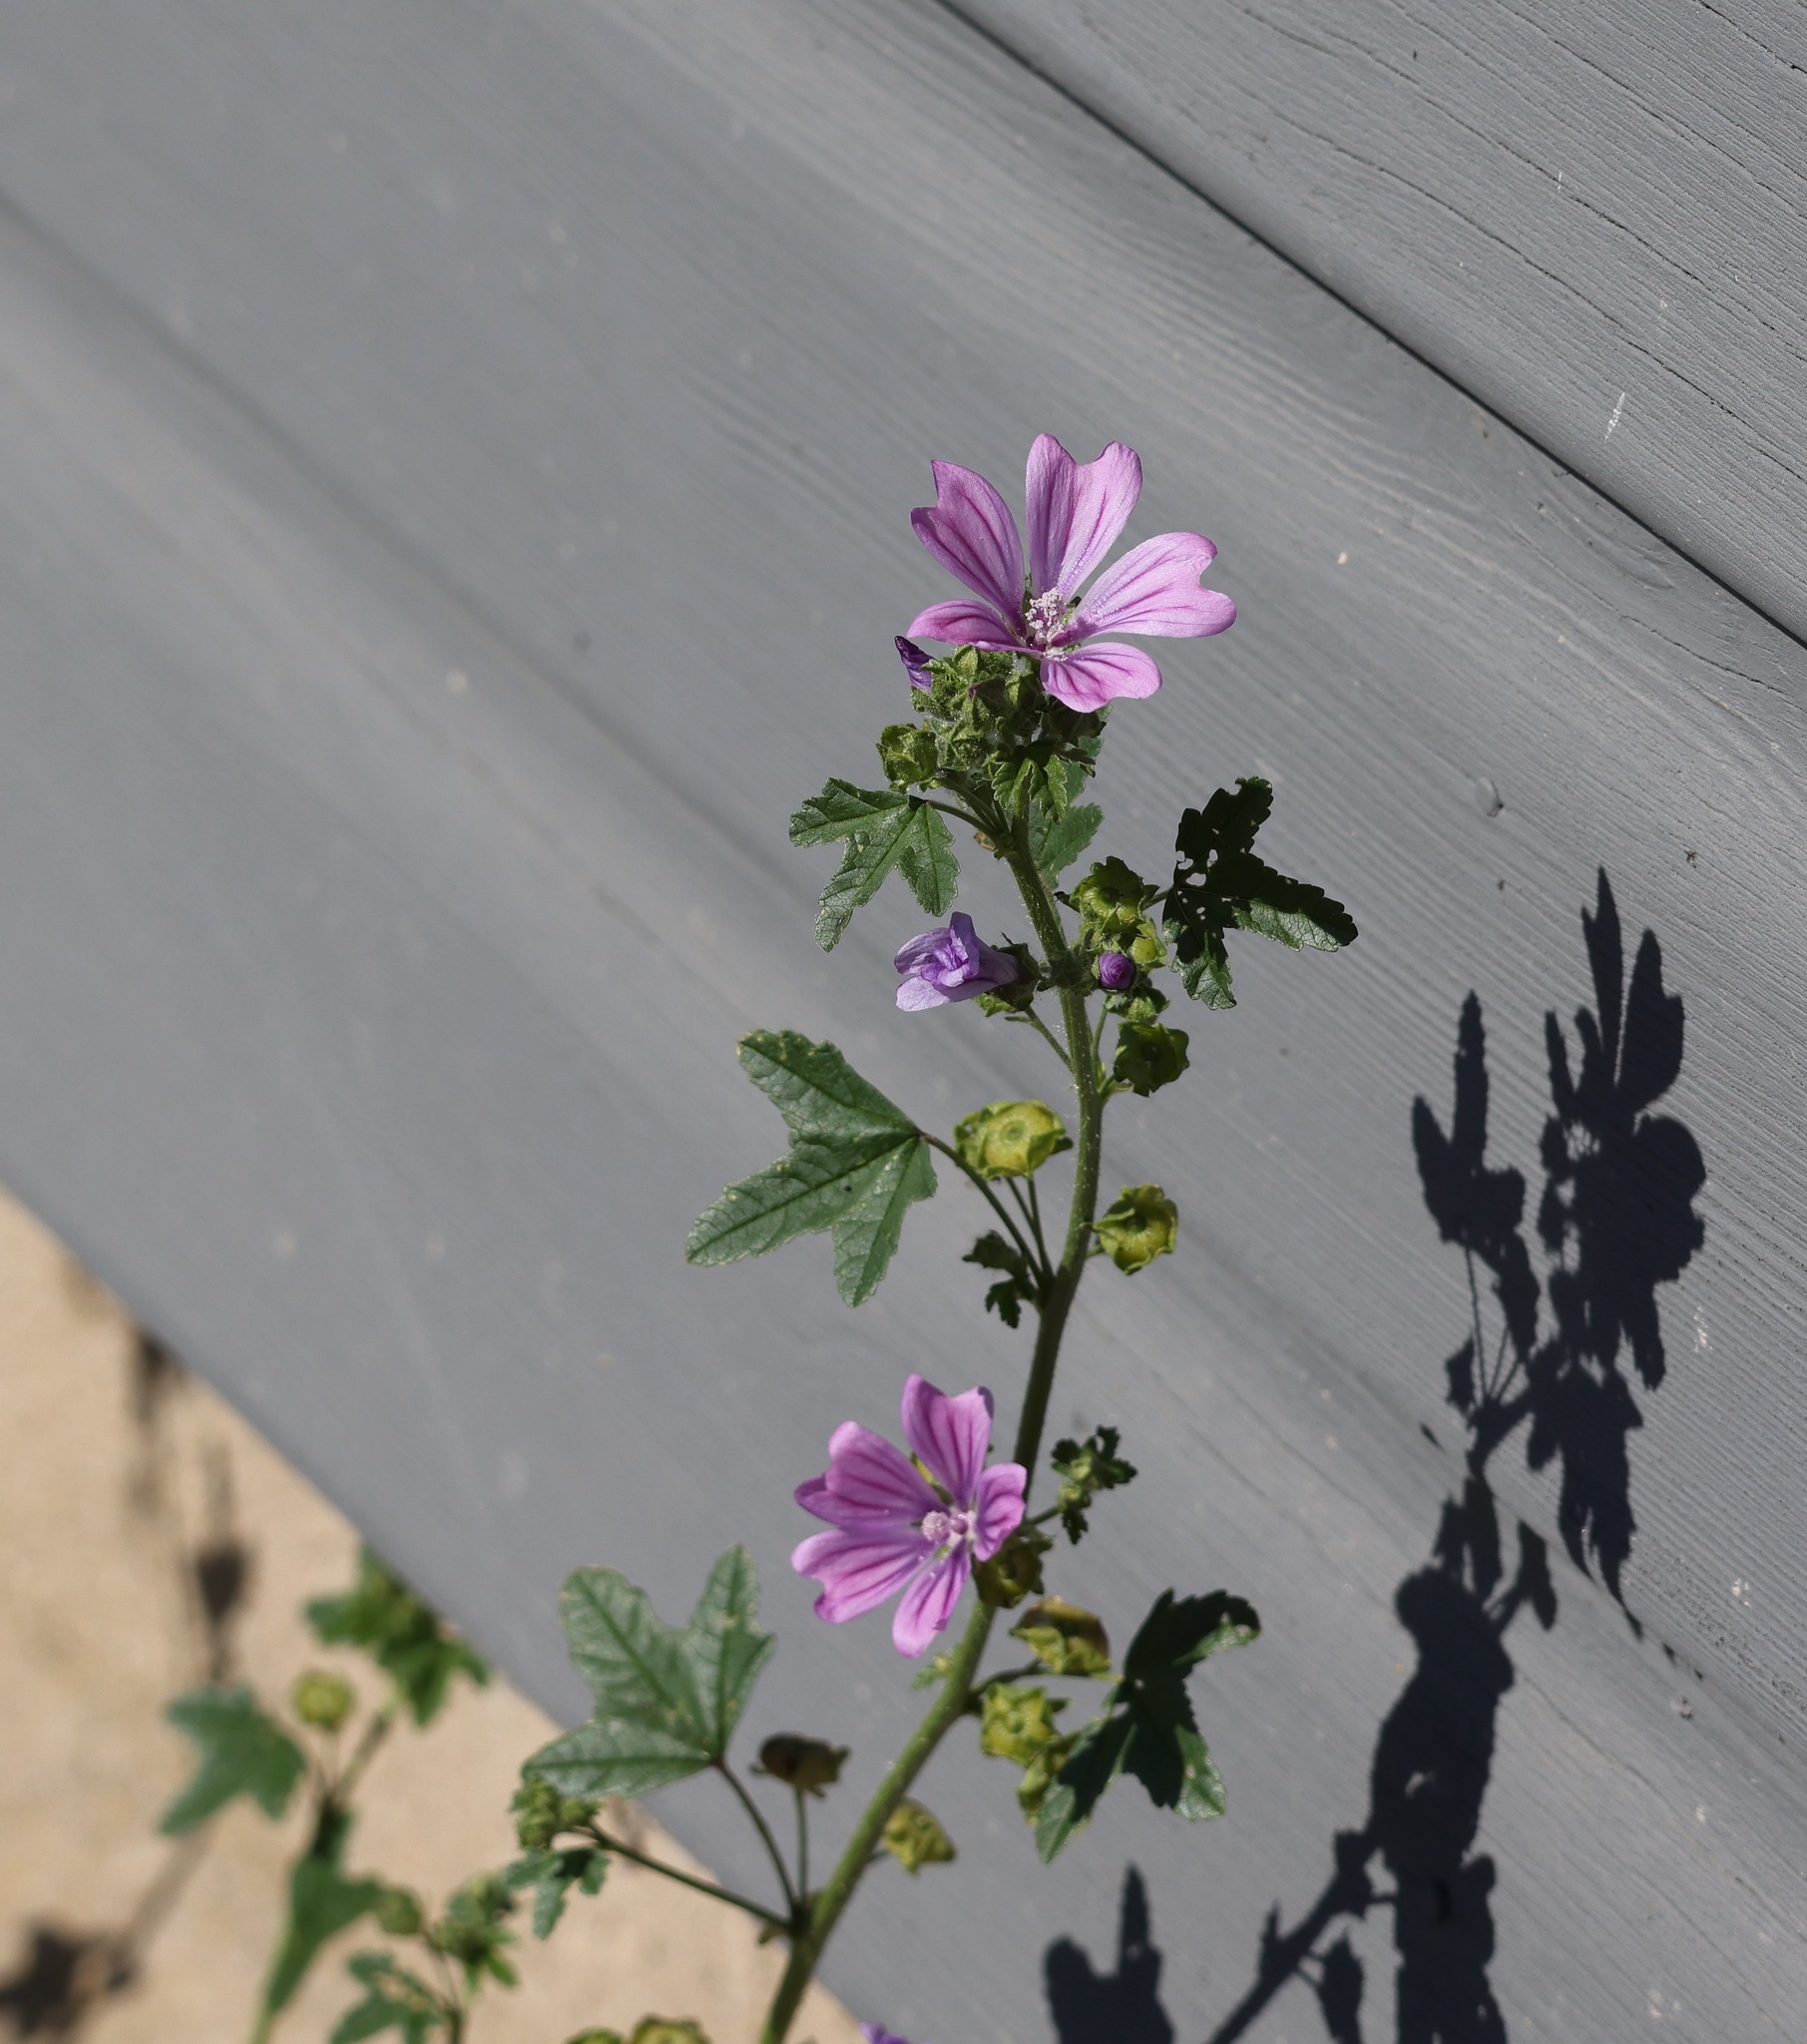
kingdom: Plantae
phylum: Tracheophyta
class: Magnoliopsida
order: Malvales
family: Malvaceae
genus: Malva
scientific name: Malva sylvestris
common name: Common mallow
